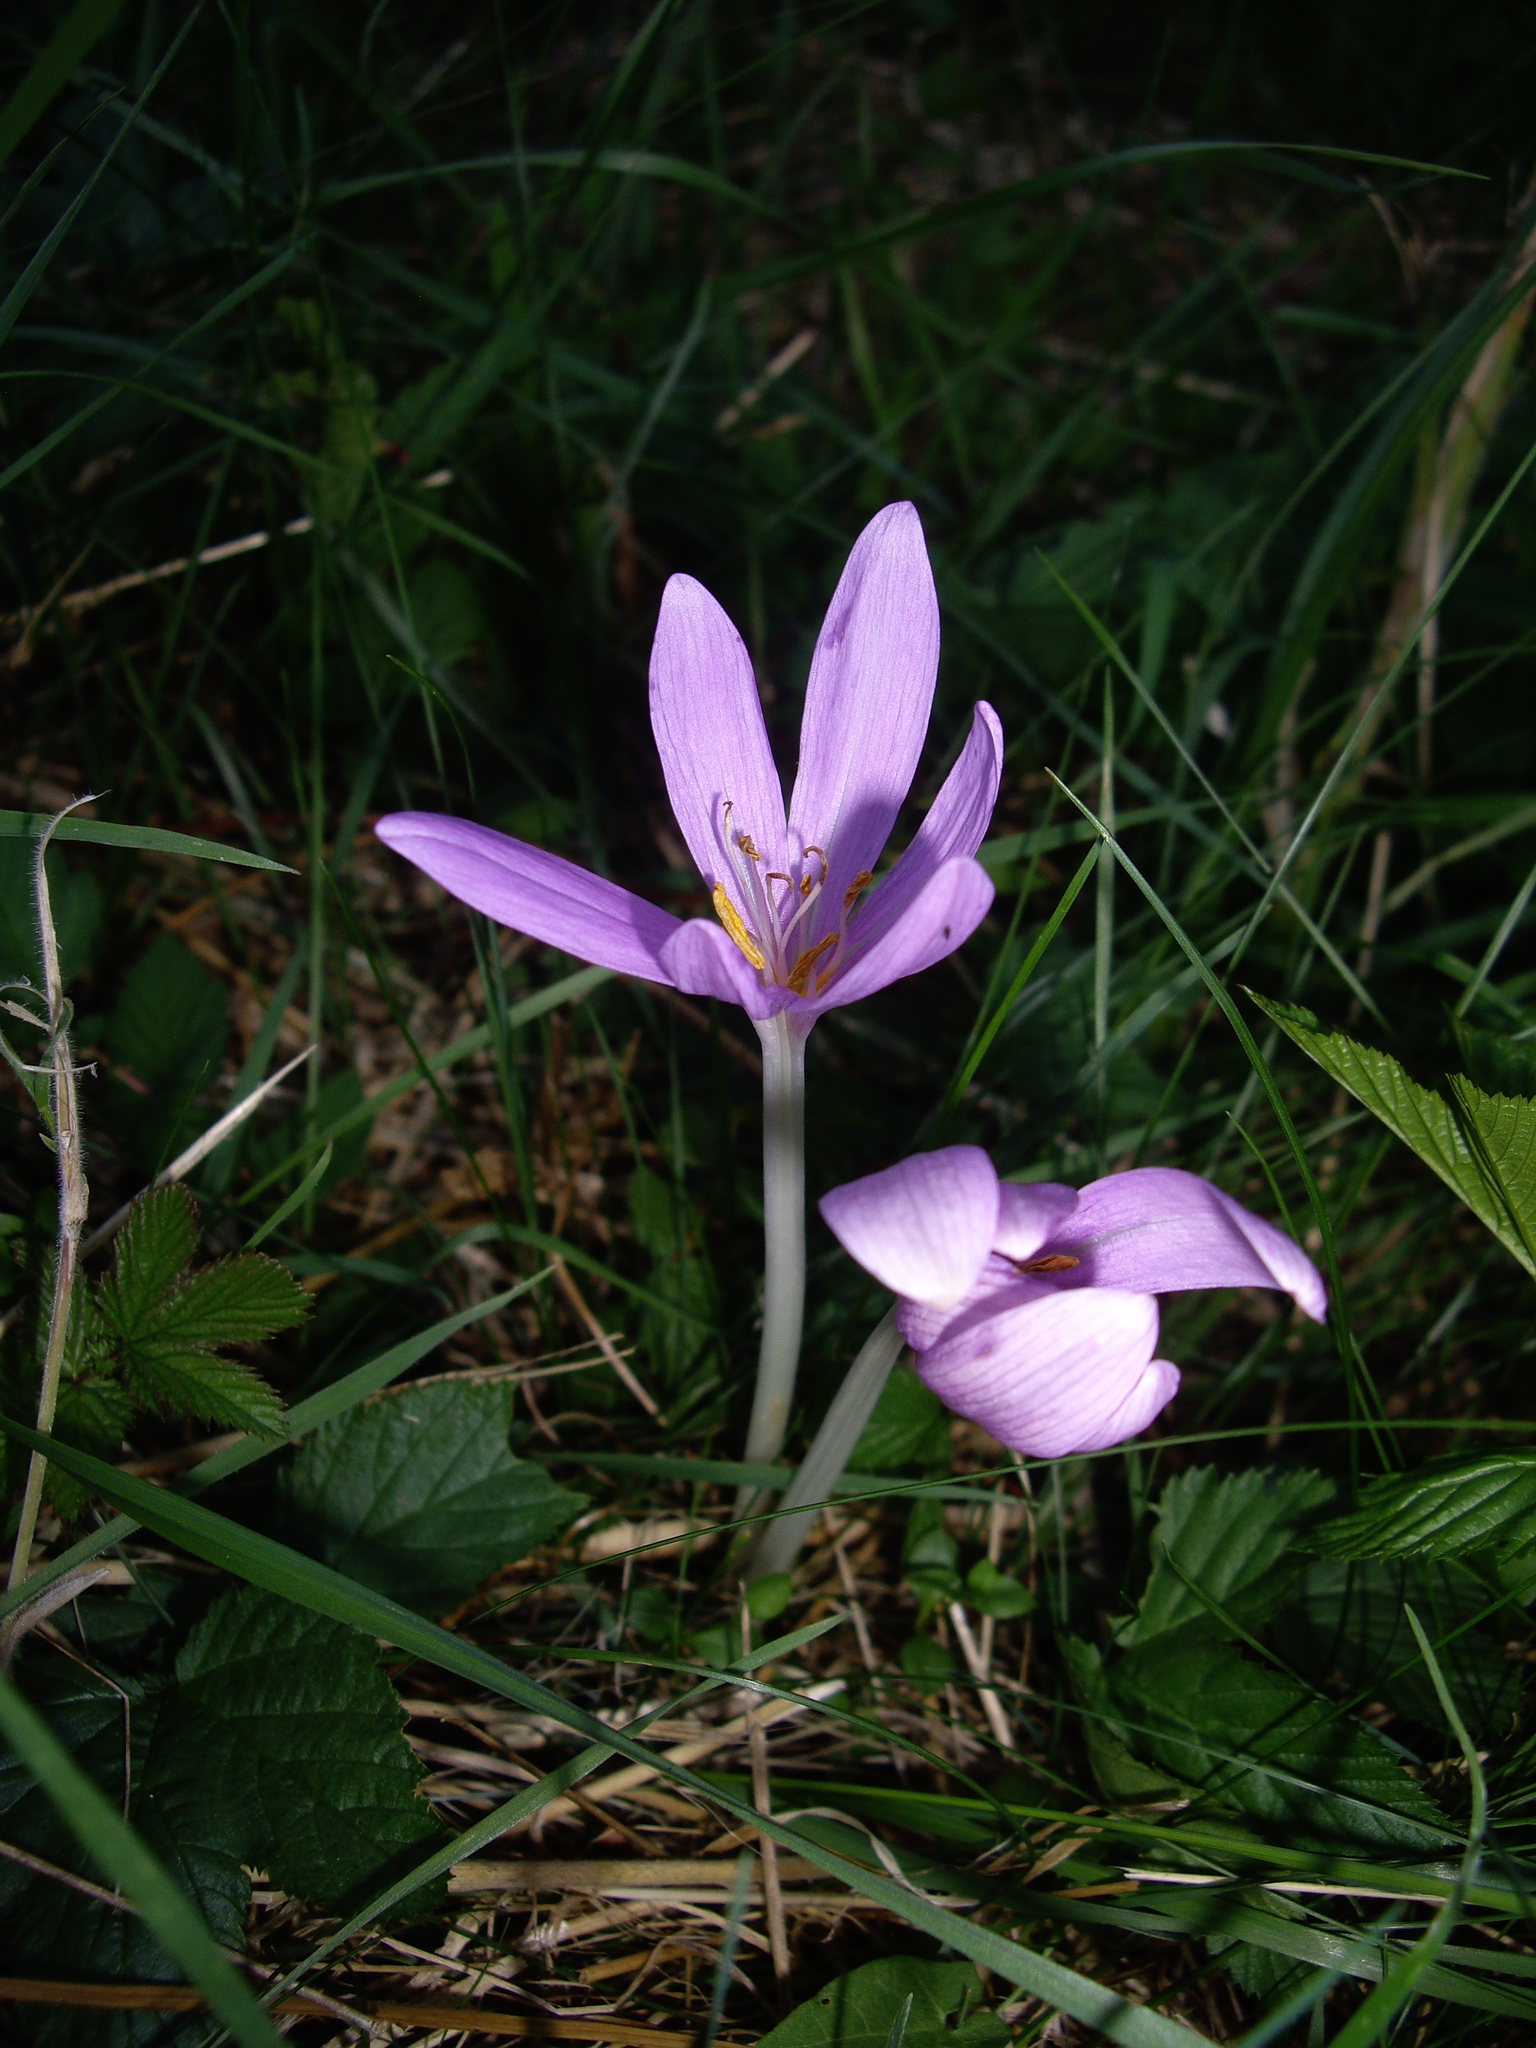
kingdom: Plantae
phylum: Tracheophyta
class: Liliopsida
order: Liliales
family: Colchicaceae
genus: Colchicum
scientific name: Colchicum autumnale
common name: Autumn crocus
